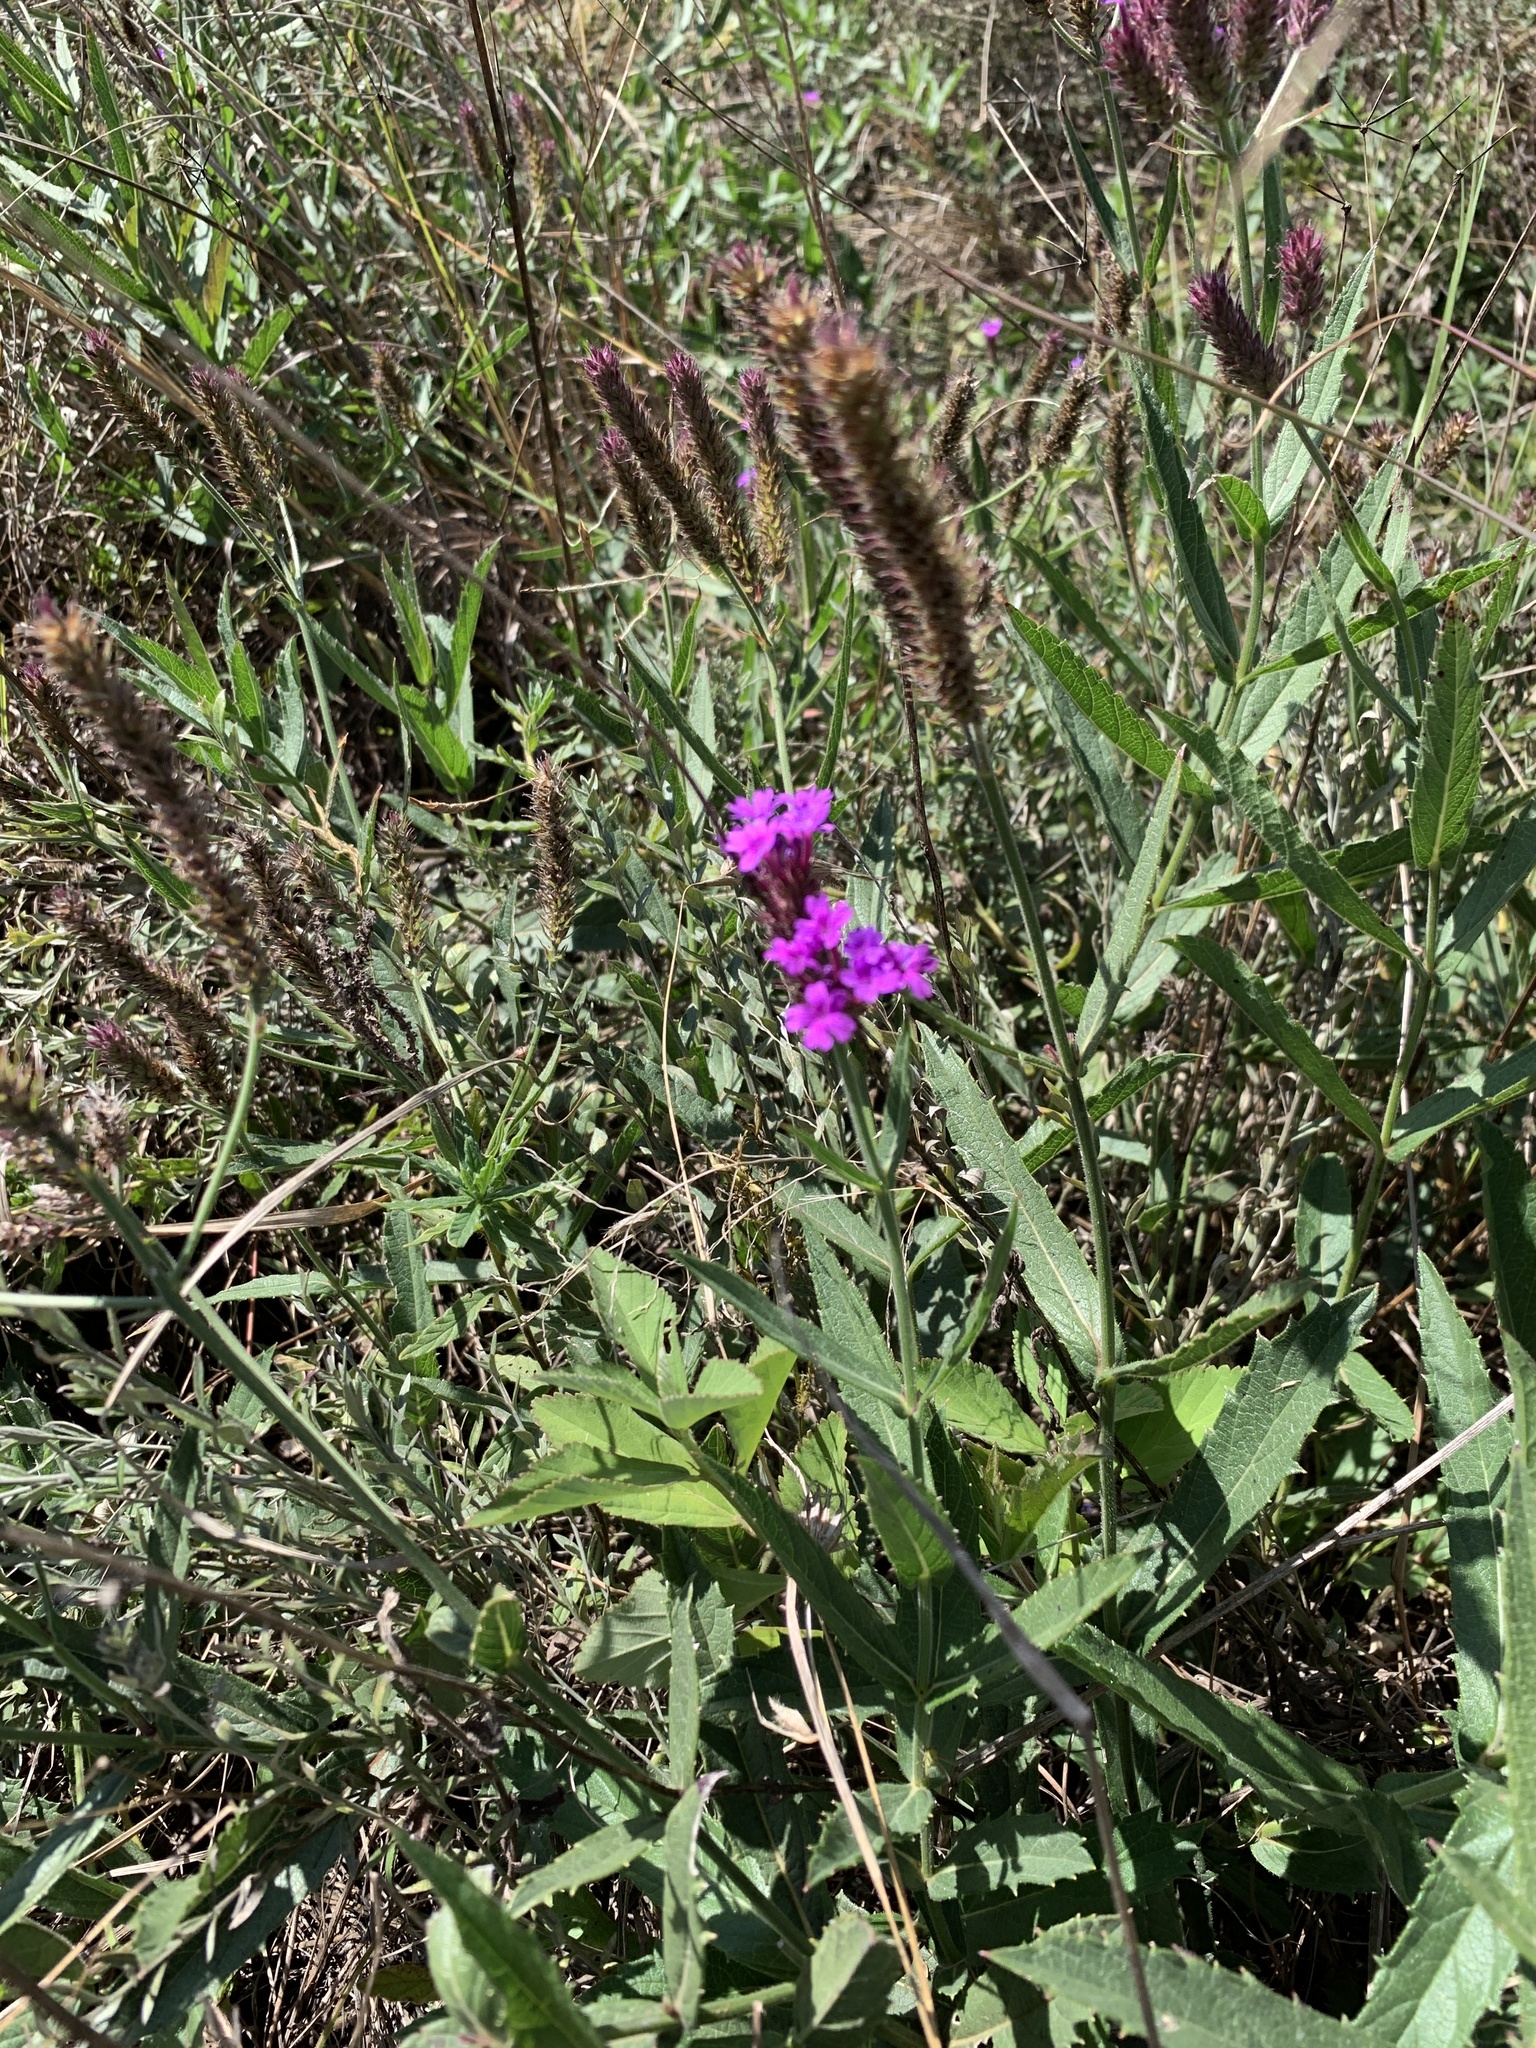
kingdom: Plantae
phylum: Tracheophyta
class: Magnoliopsida
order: Lamiales
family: Verbenaceae
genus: Verbena
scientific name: Verbena rigida
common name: Slender vervain
